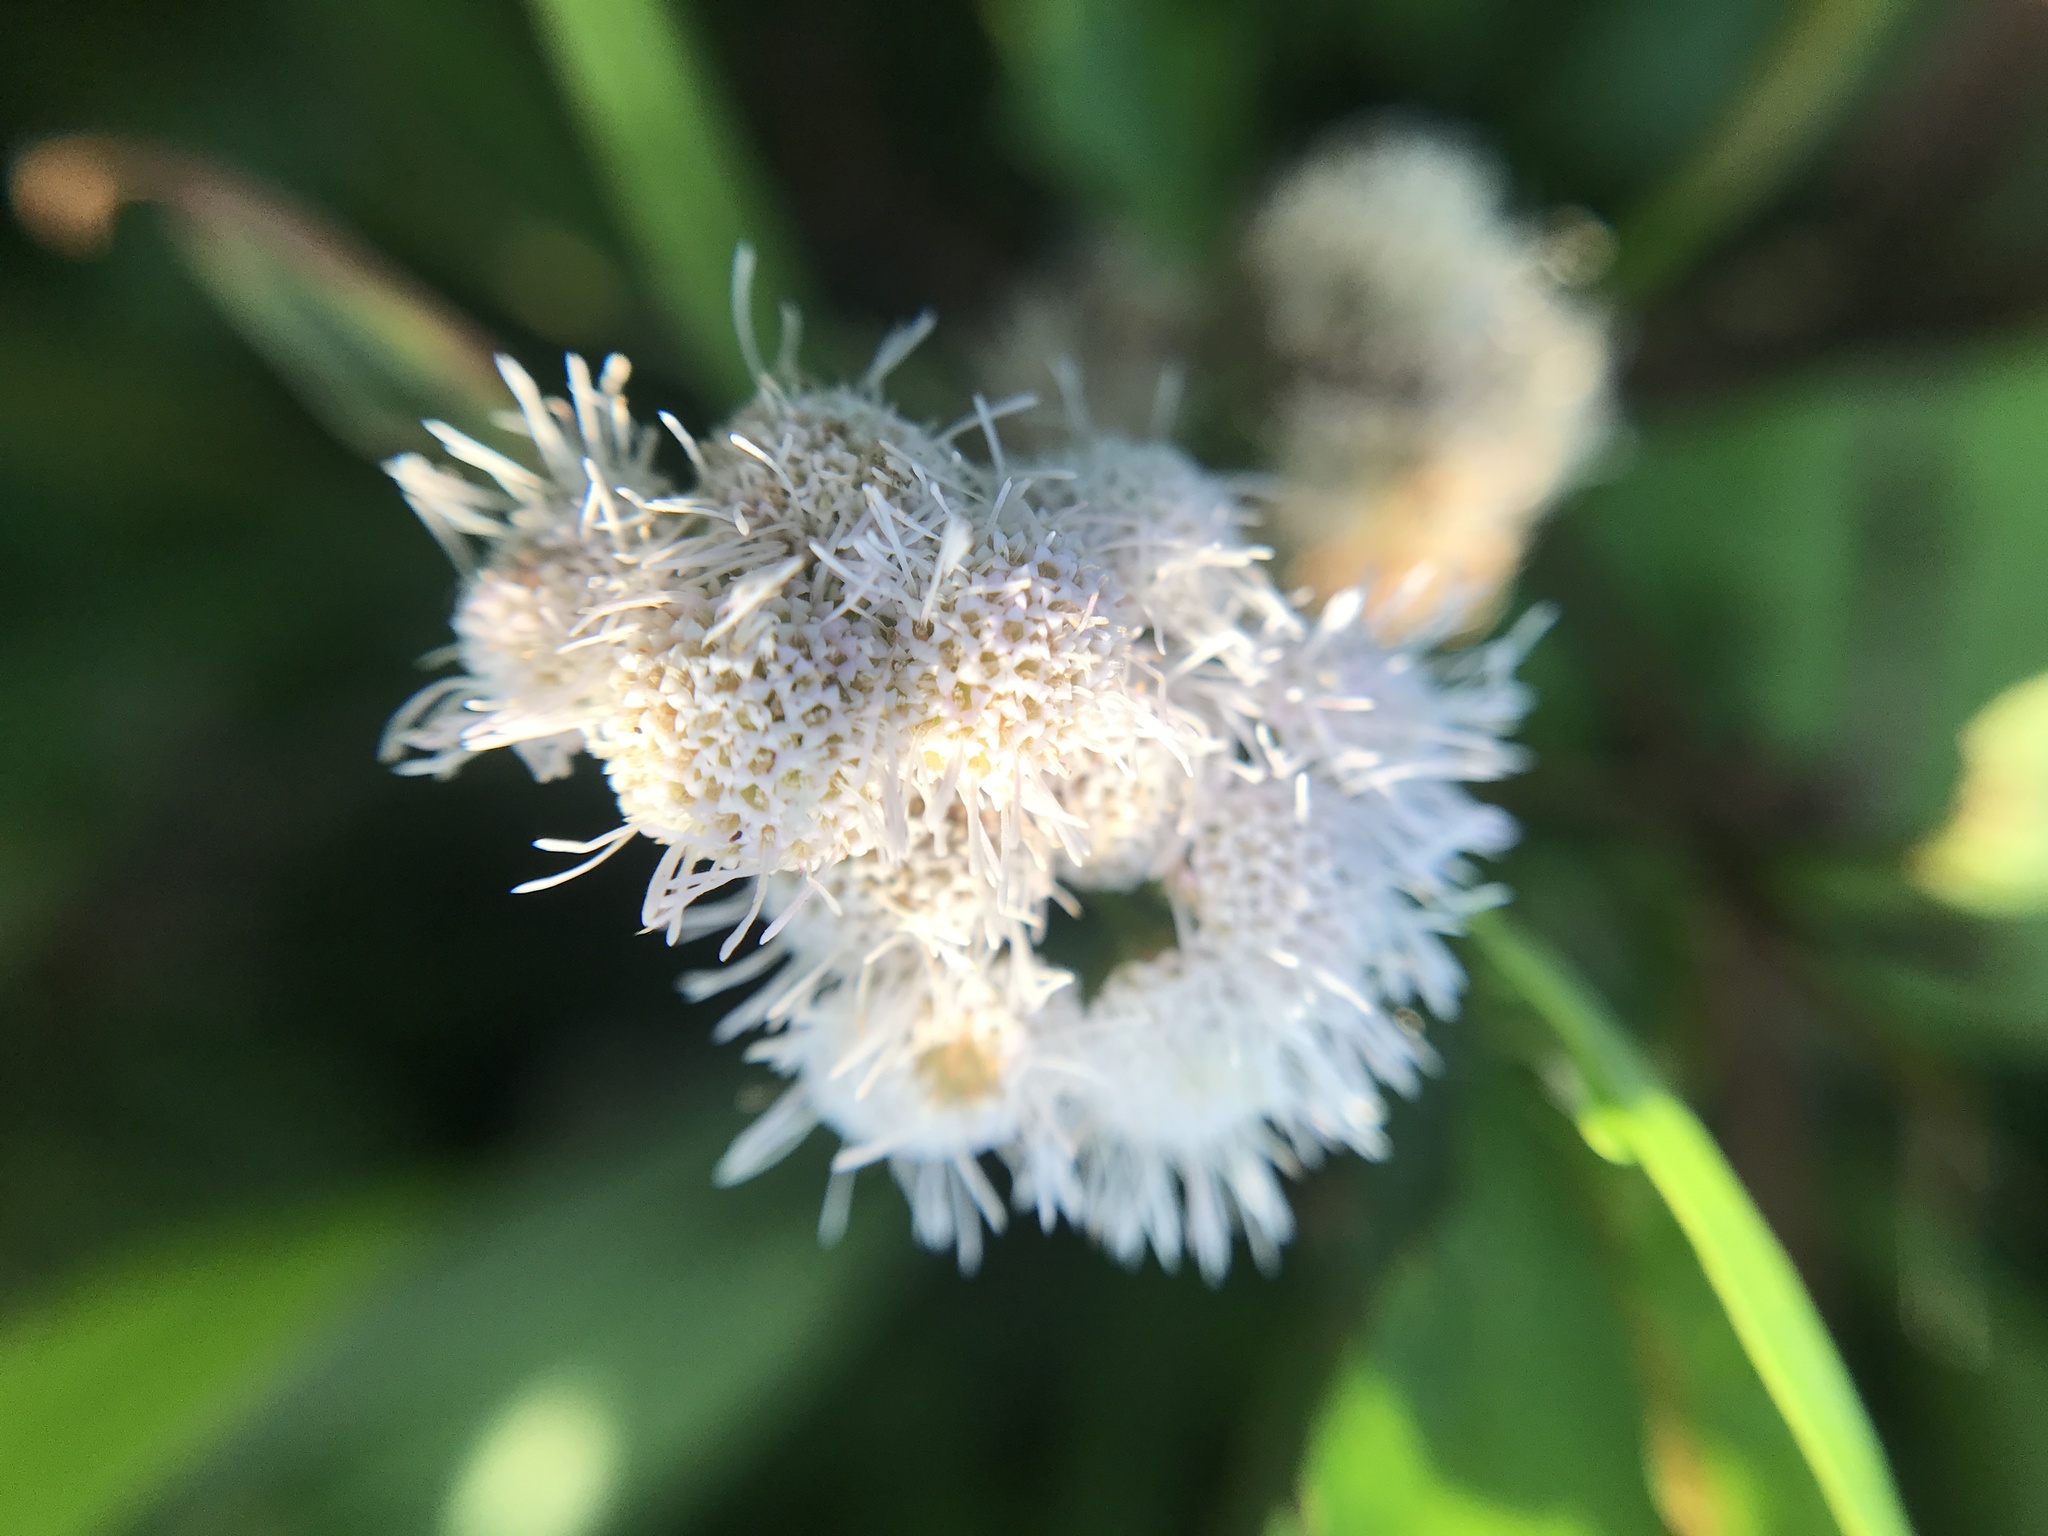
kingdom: Plantae
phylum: Tracheophyta
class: Magnoliopsida
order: Asterales
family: Asteraceae
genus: Barrosoa
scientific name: Barrosoa candolleana
